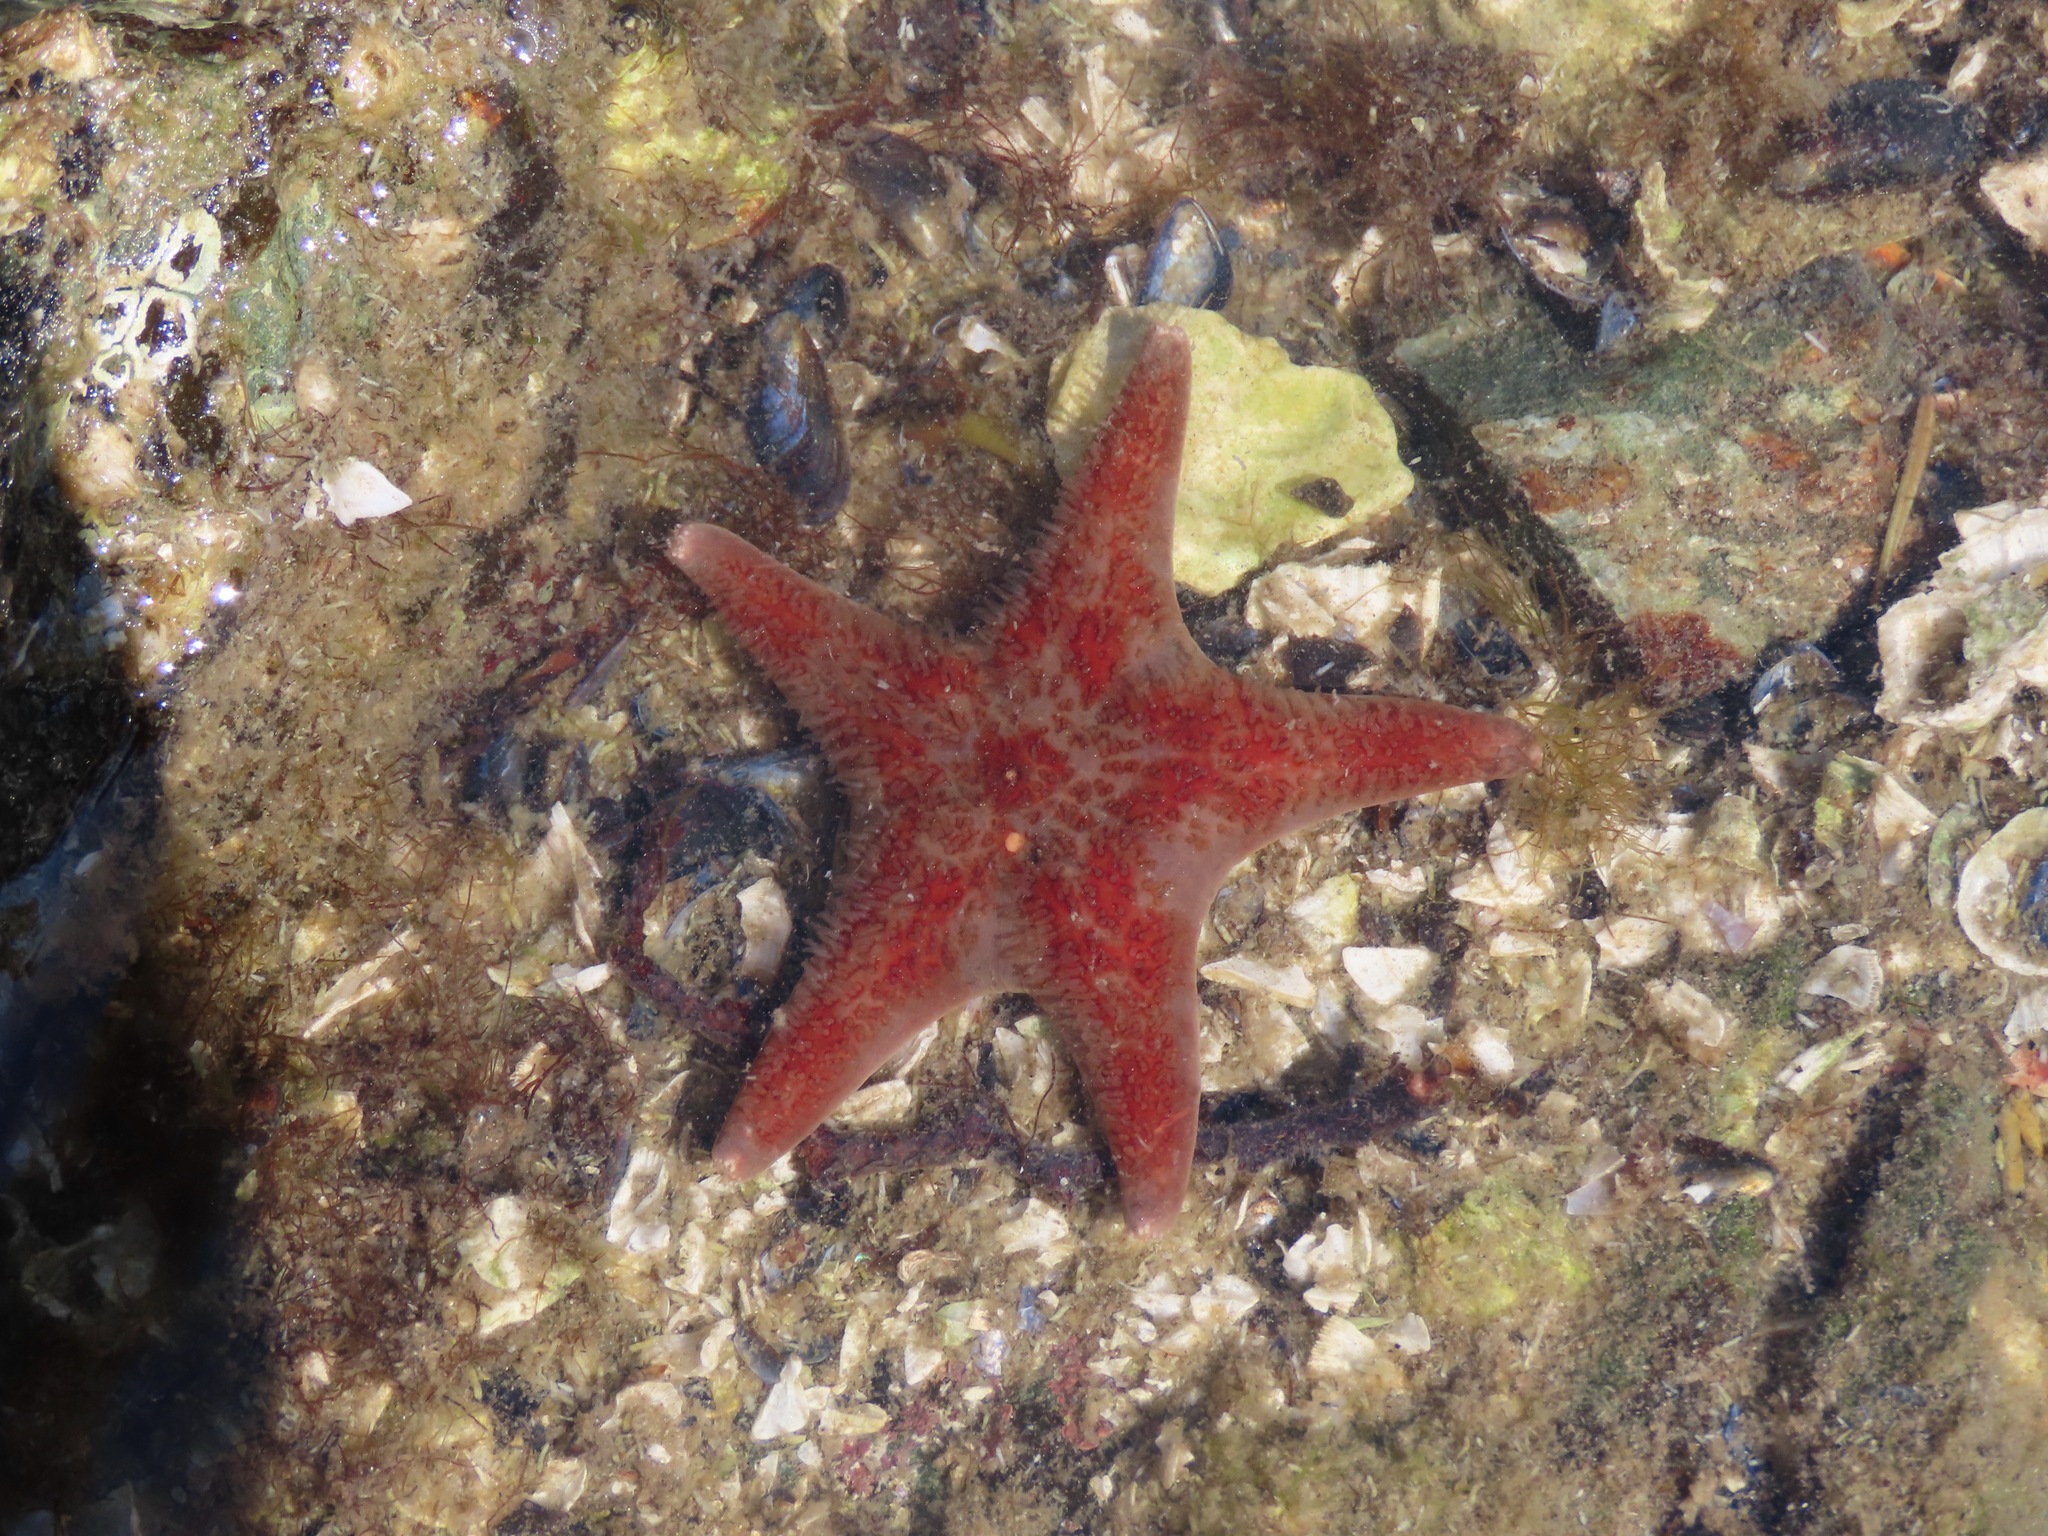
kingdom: Animalia
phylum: Echinodermata
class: Asteroidea
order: Valvatida
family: Asteropseidae
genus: Dermasterias
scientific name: Dermasterias imbricata
